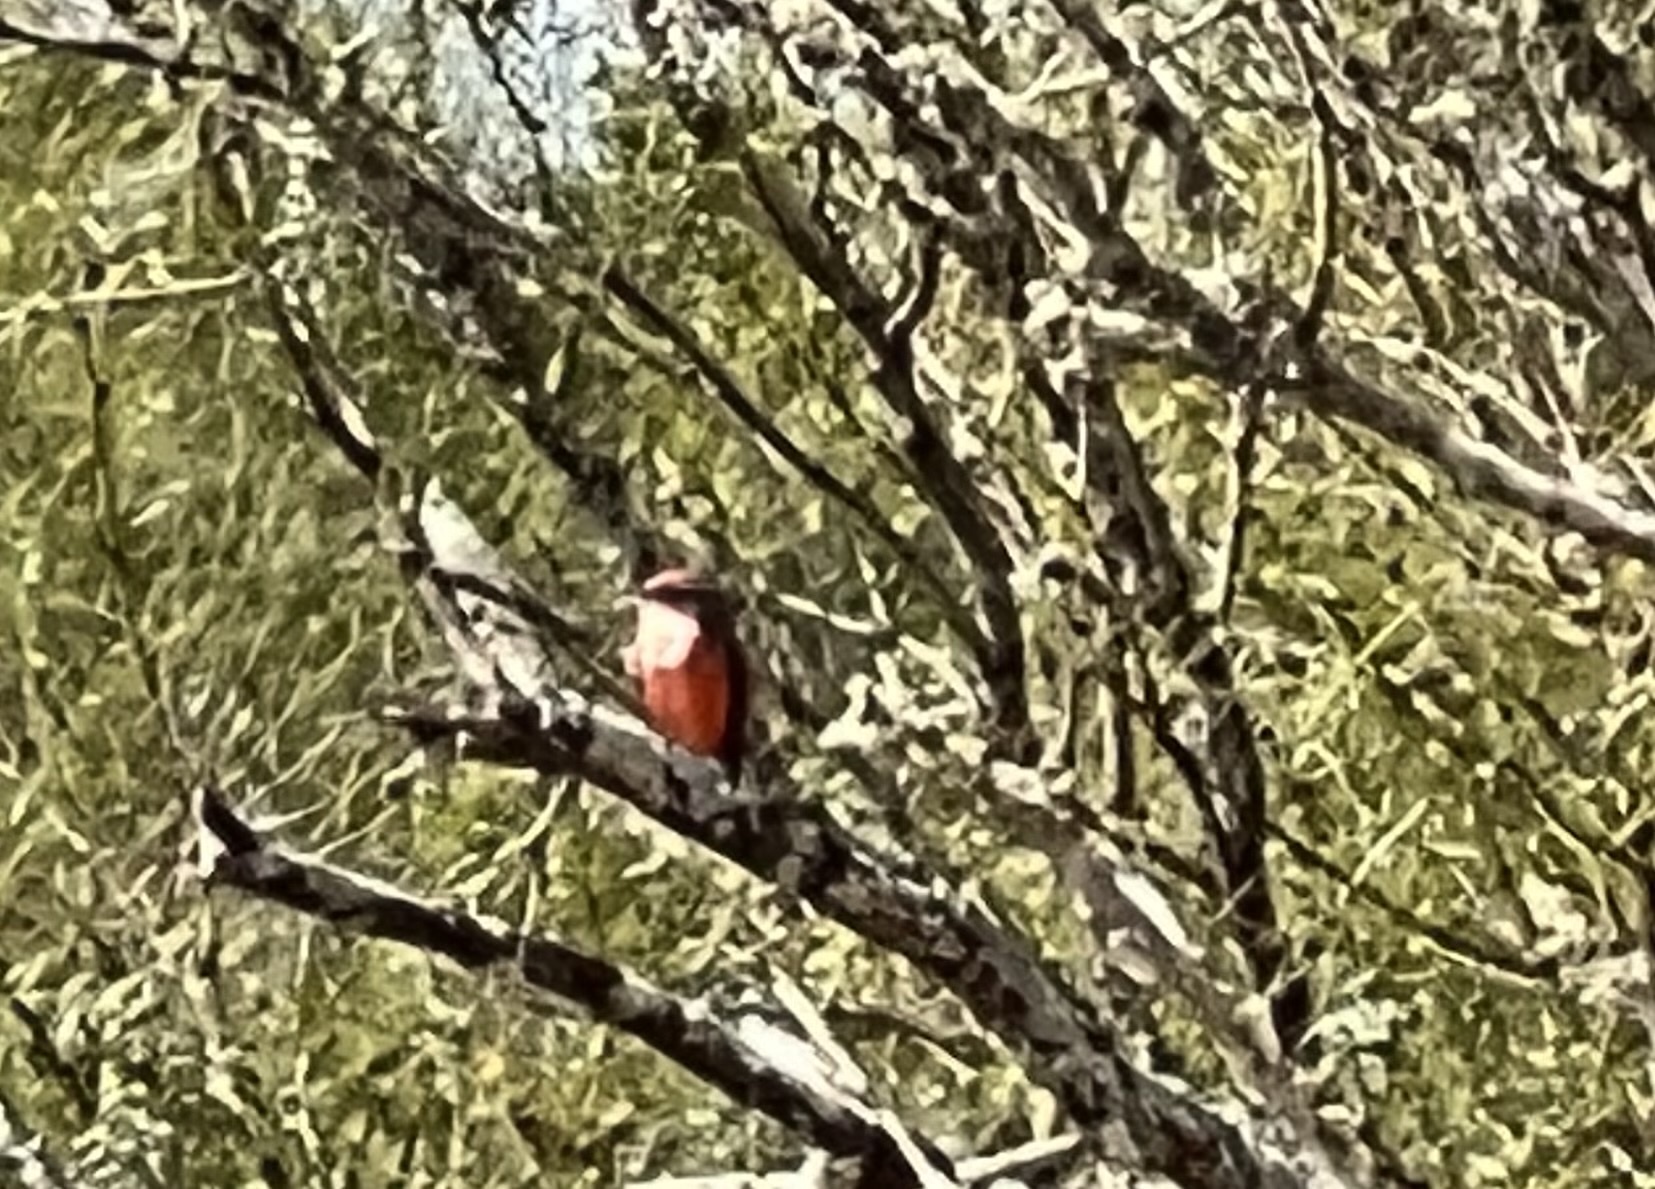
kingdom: Animalia
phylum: Chordata
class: Aves
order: Passeriformes
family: Tyrannidae
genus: Pyrocephalus
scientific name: Pyrocephalus rubinus
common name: Vermilion flycatcher
